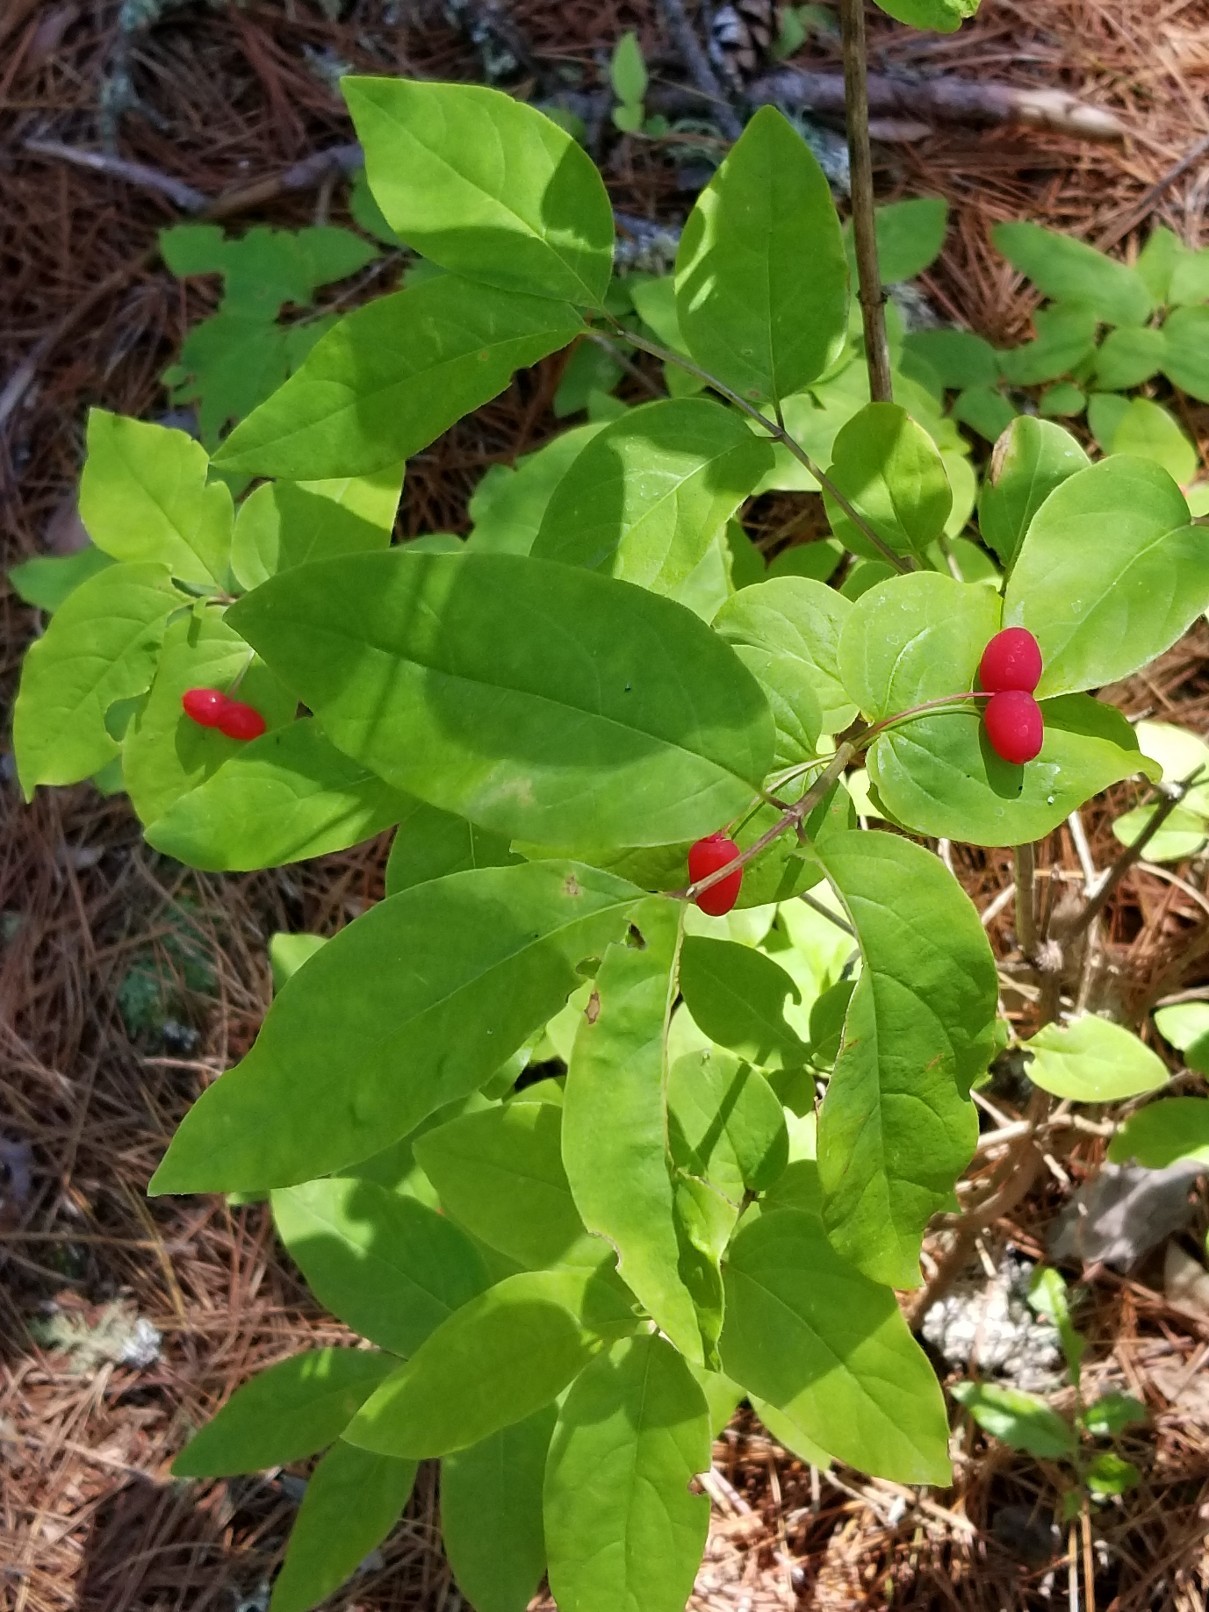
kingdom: Plantae
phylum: Tracheophyta
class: Magnoliopsida
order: Dipsacales
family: Caprifoliaceae
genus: Lonicera
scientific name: Lonicera canadensis
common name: American fly-honeysuckle
